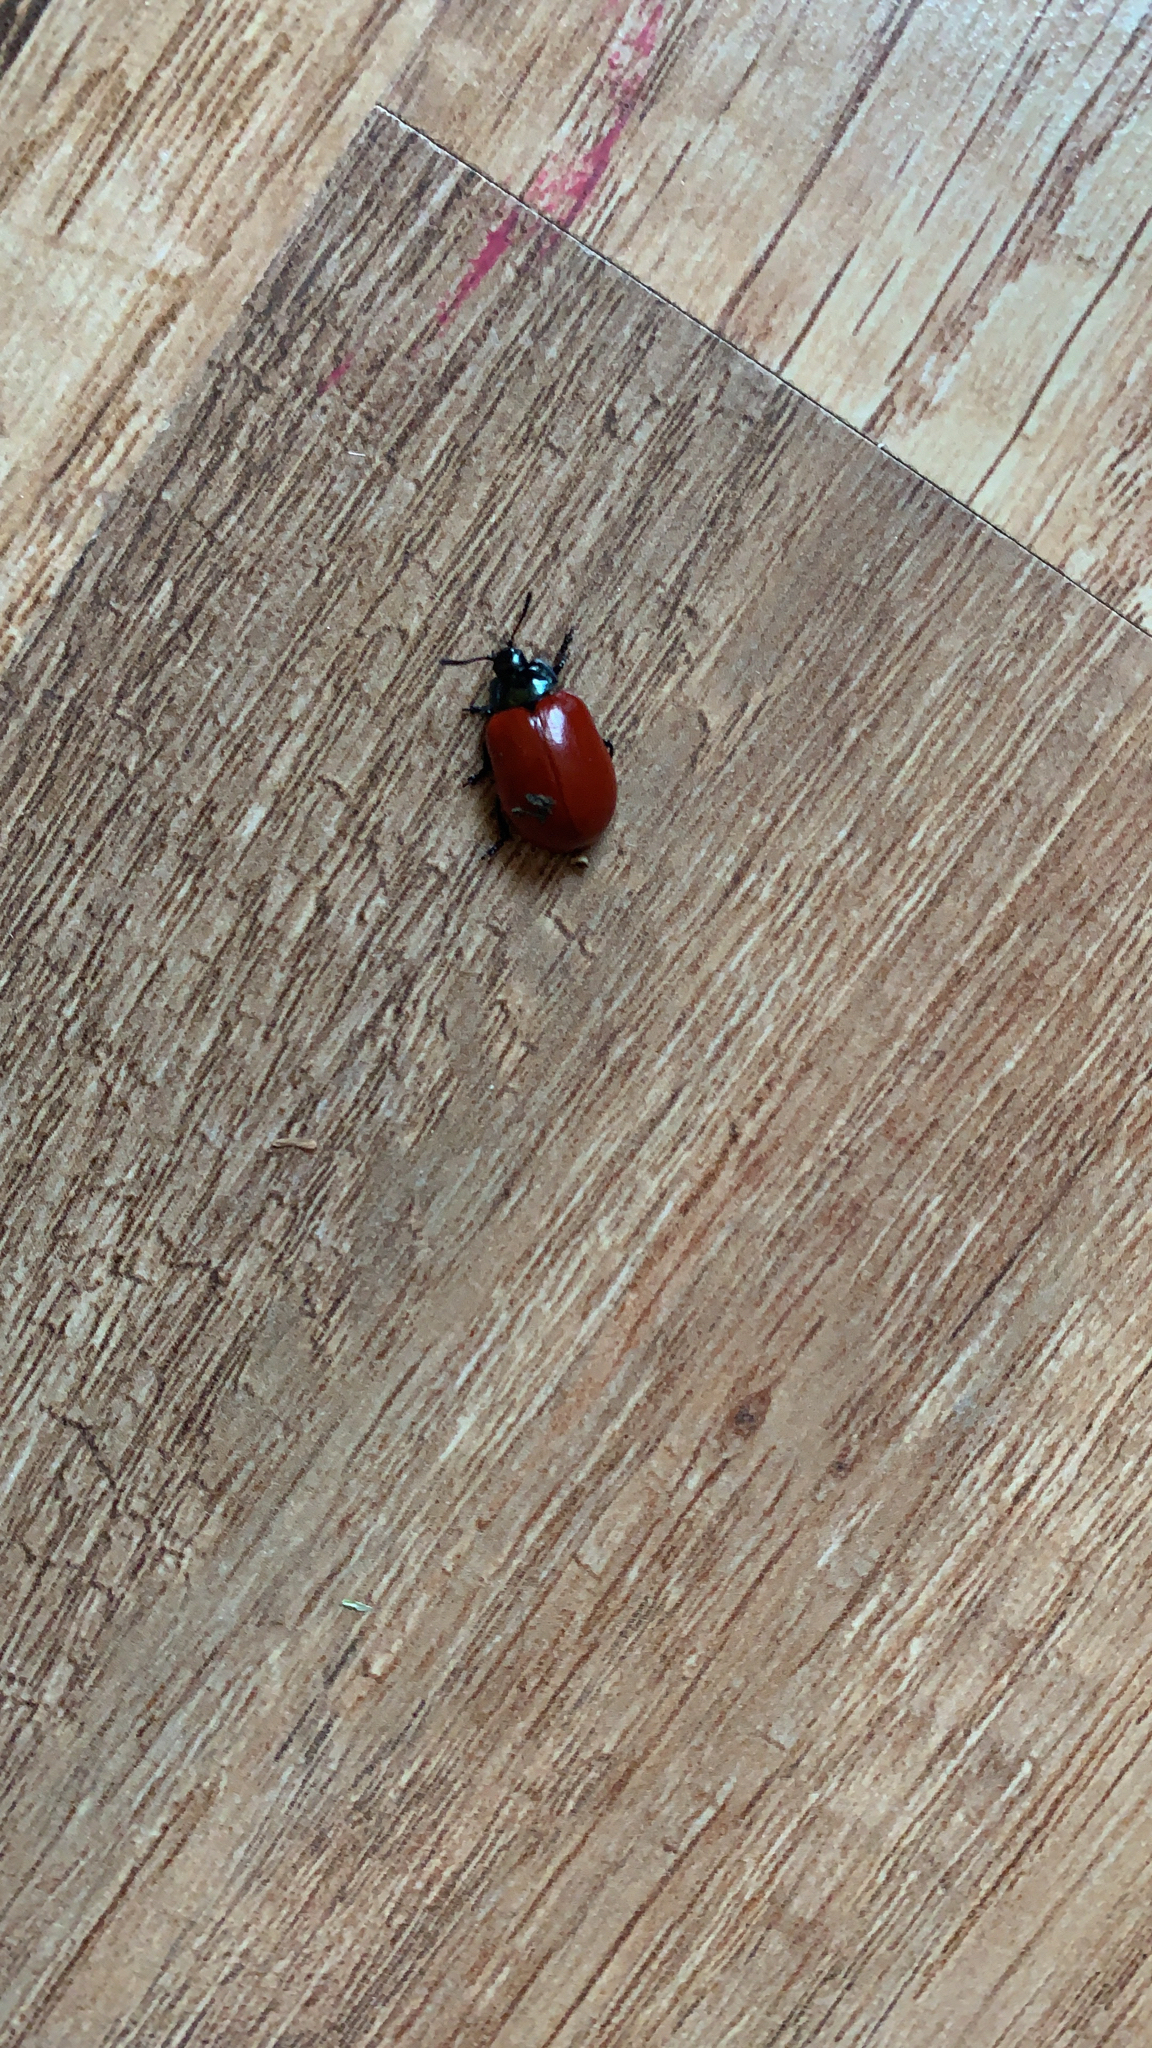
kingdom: Animalia
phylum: Arthropoda
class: Insecta
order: Coleoptera
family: Chrysomelidae
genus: Chrysomela
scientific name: Chrysomela populi
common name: Red poplar leaf beetle
